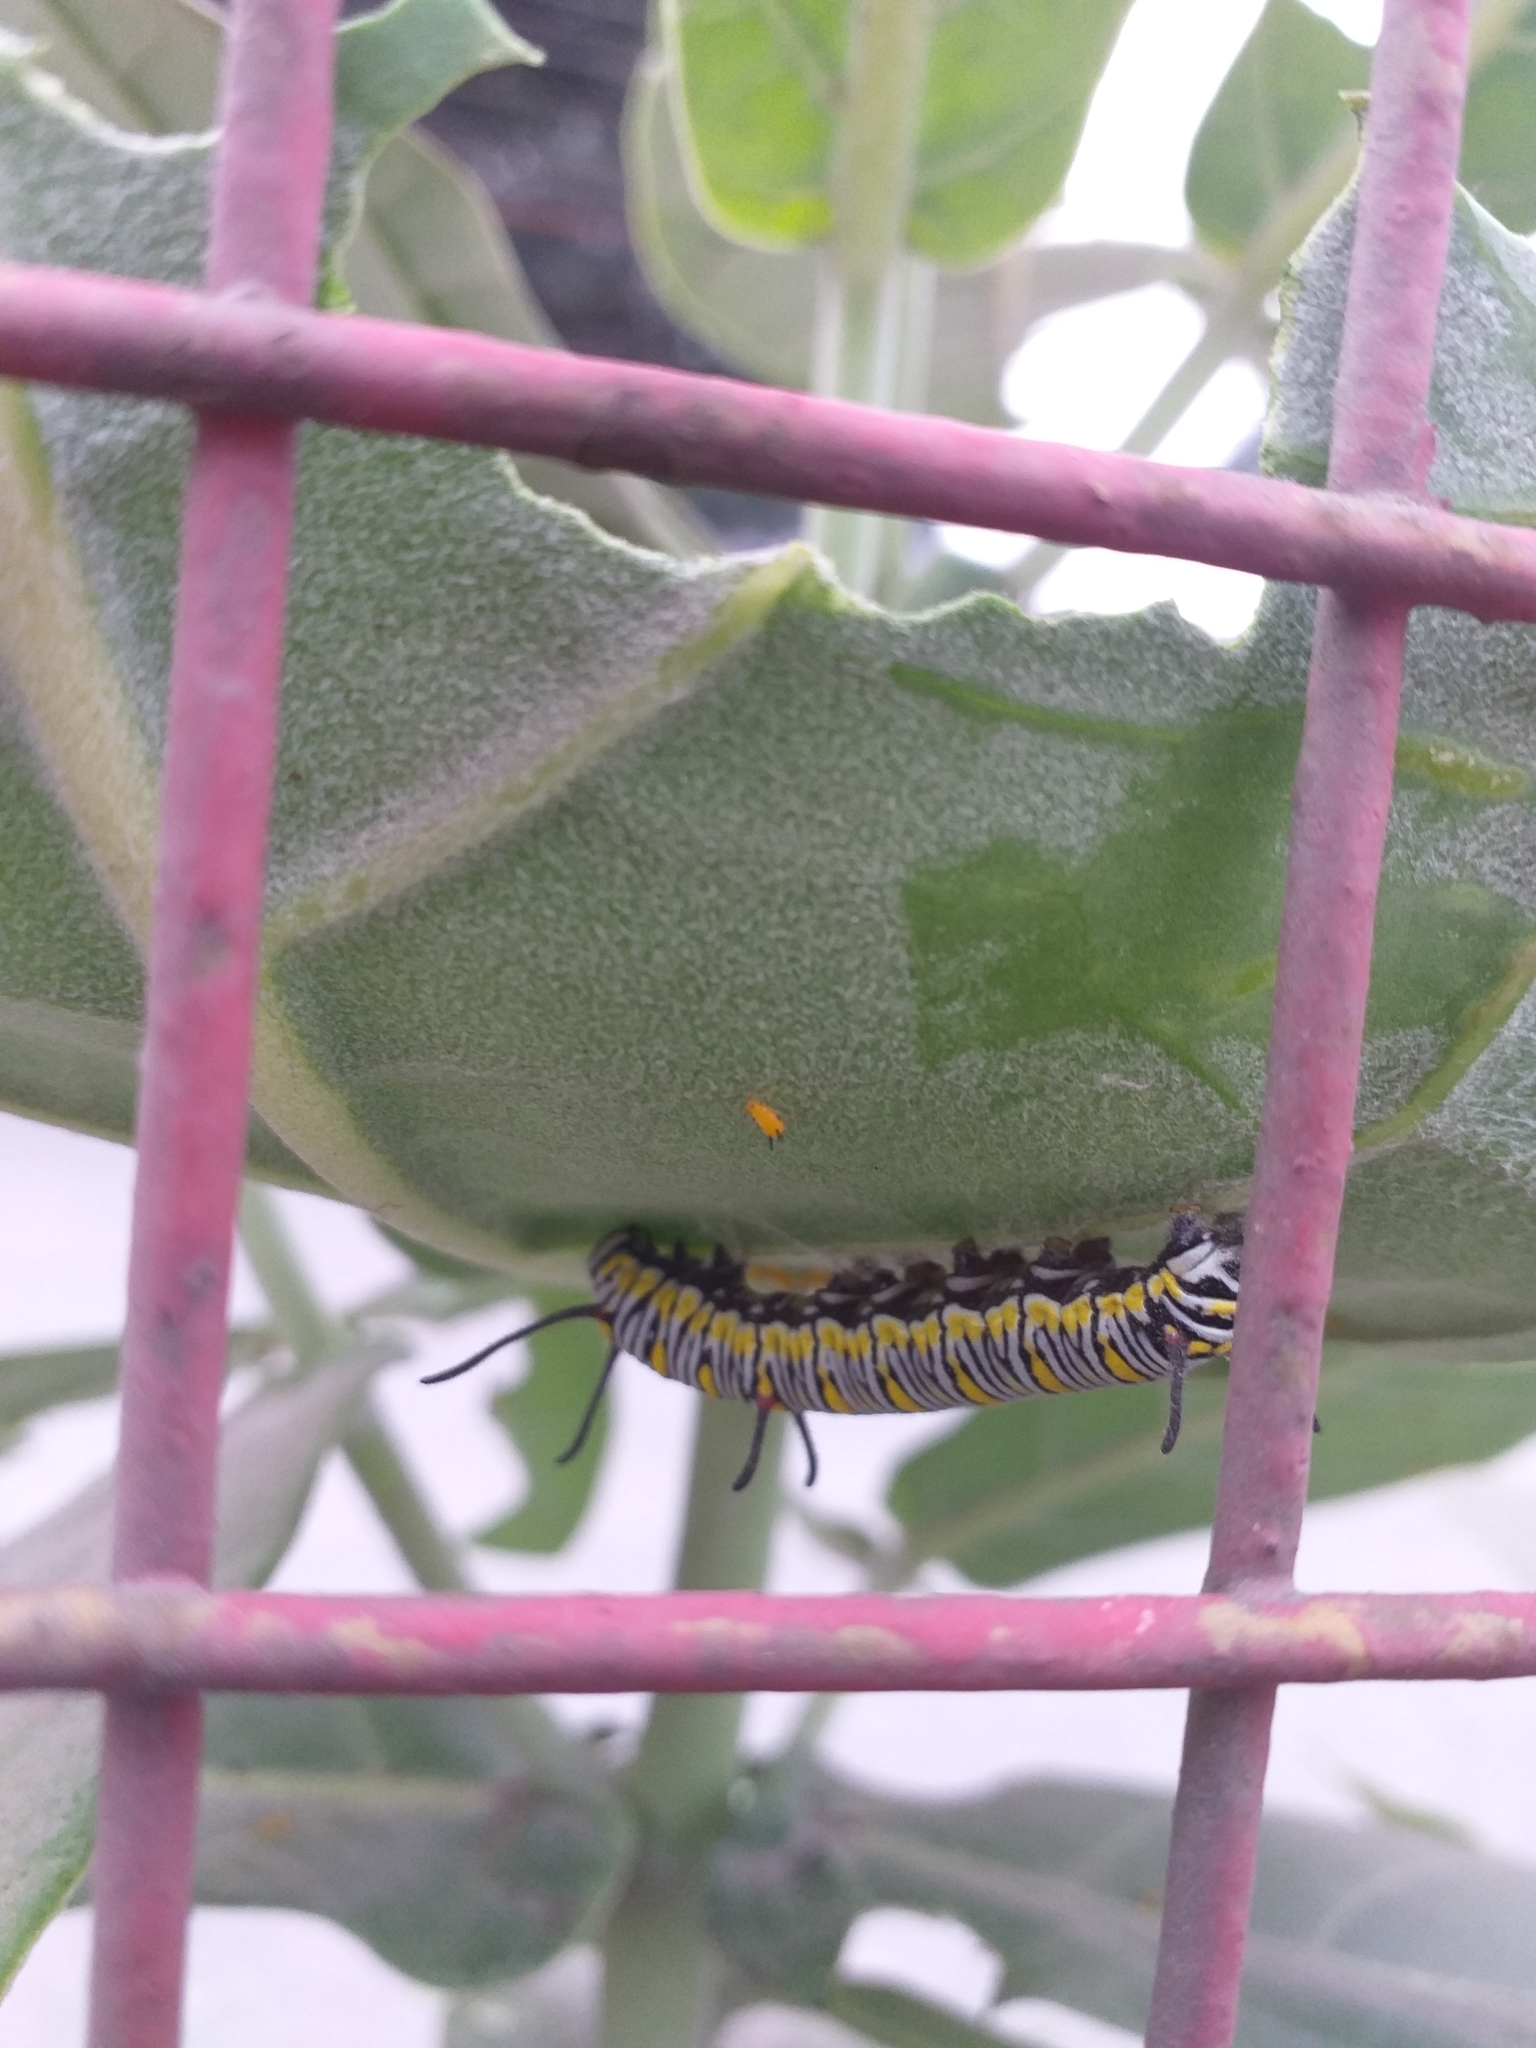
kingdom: Animalia
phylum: Arthropoda
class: Insecta
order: Lepidoptera
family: Nymphalidae
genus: Danaus
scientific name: Danaus chrysippus
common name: Plain tiger
